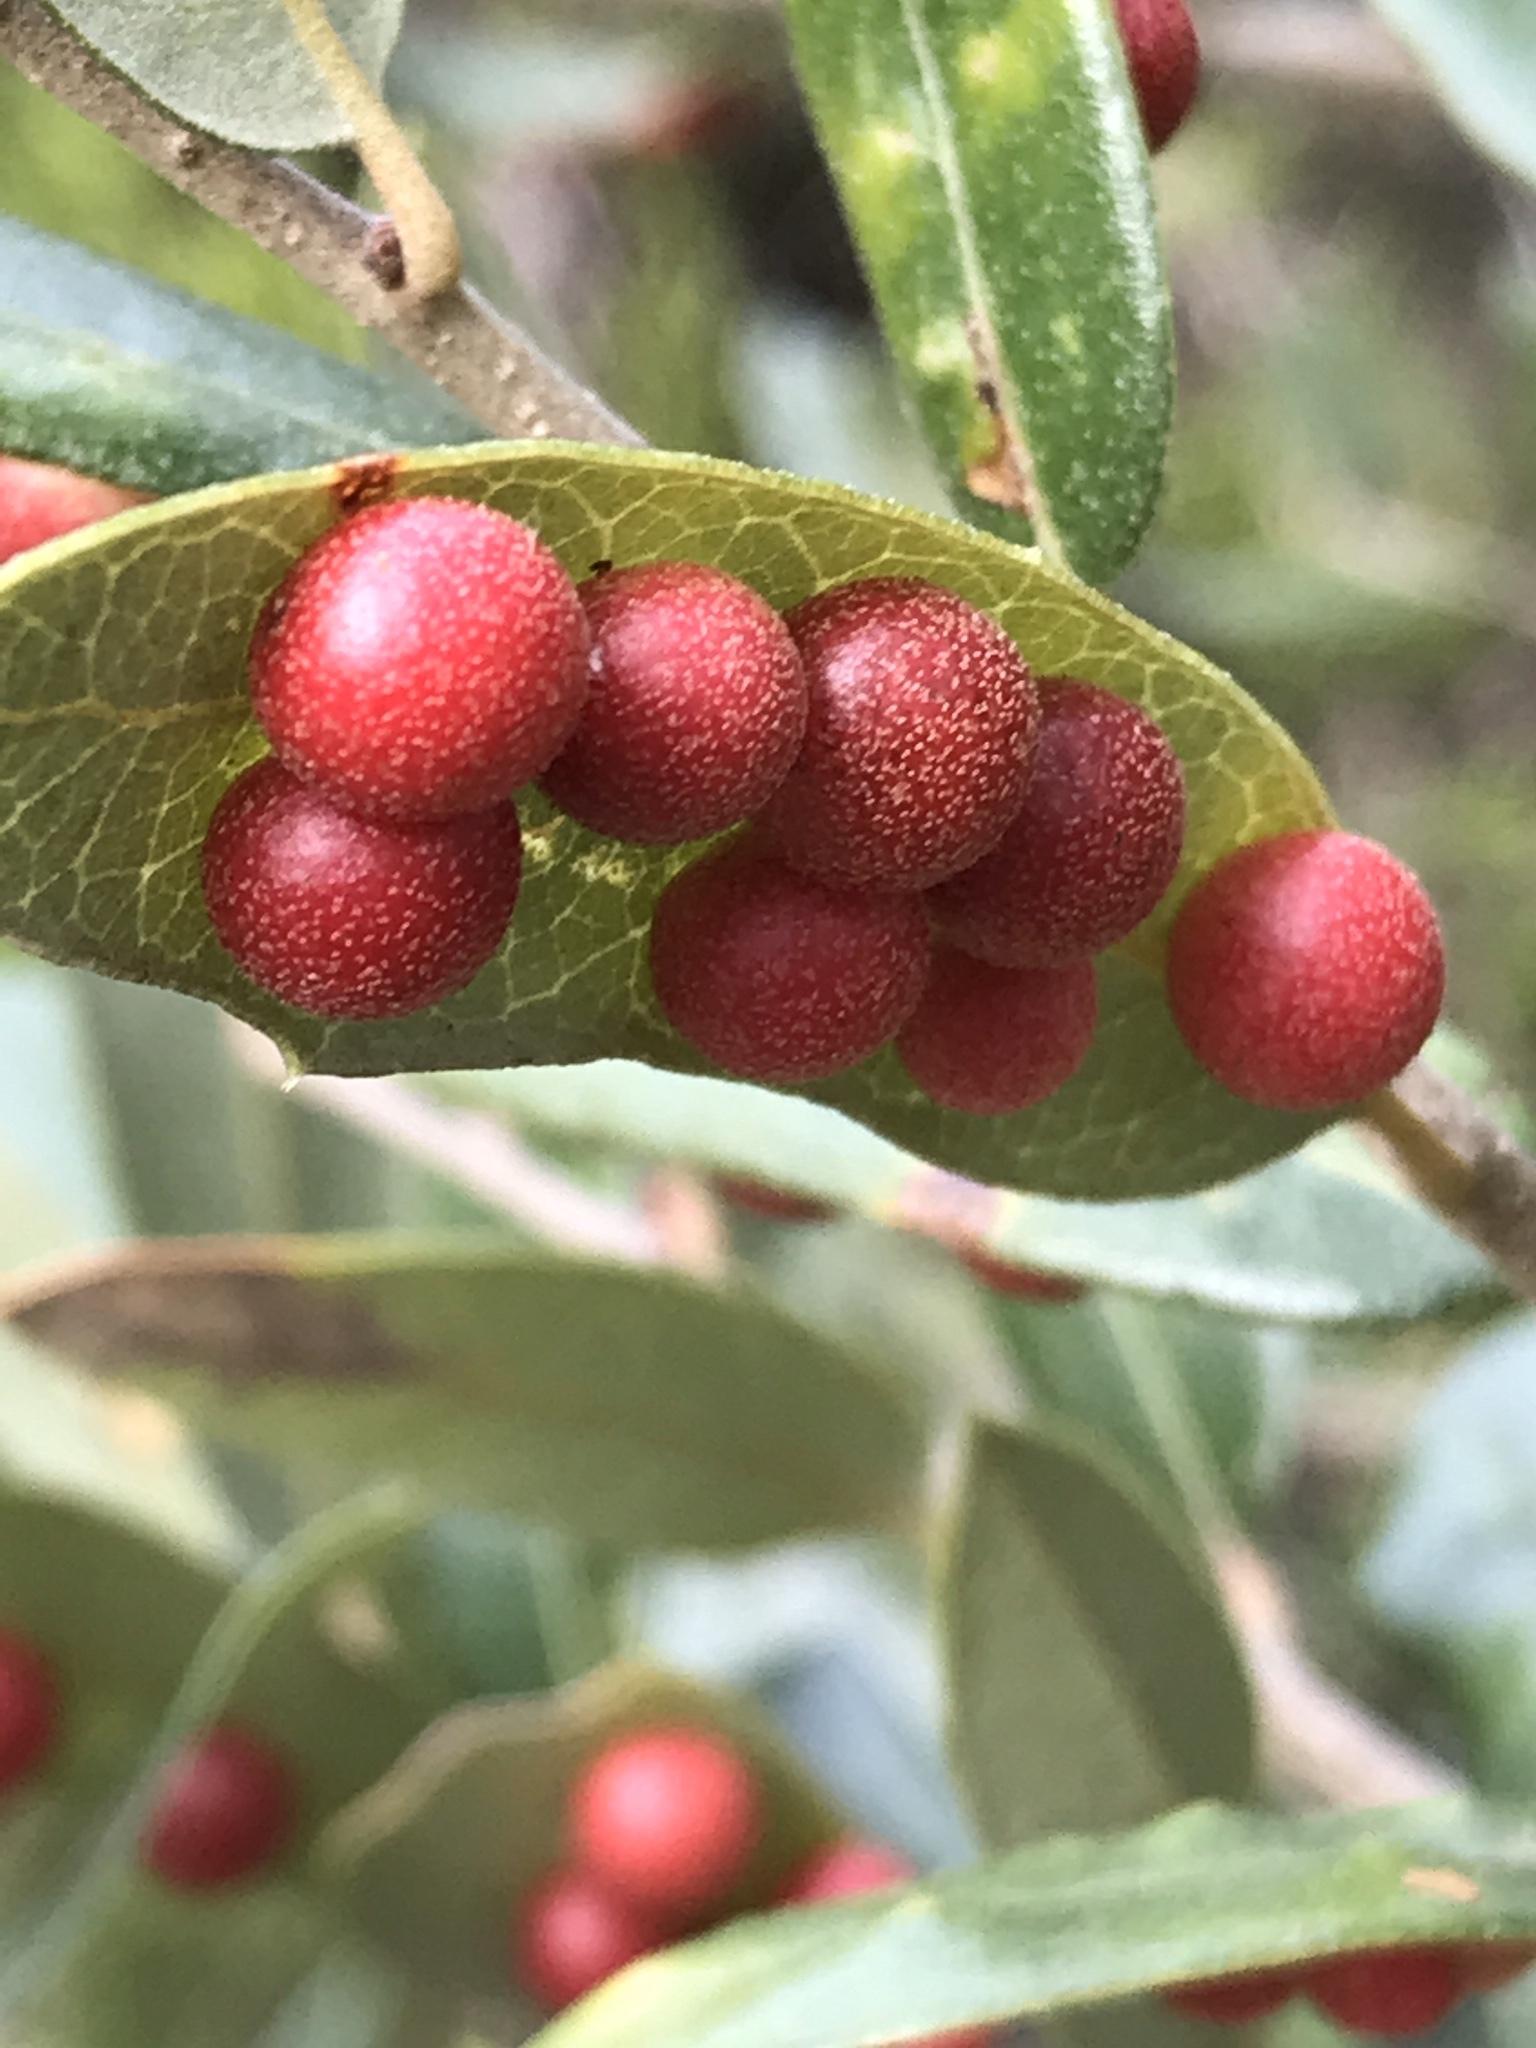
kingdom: Animalia
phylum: Arthropoda
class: Insecta
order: Hymenoptera
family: Cynipidae
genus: Belonocnema
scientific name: Belonocnema kinseyi
